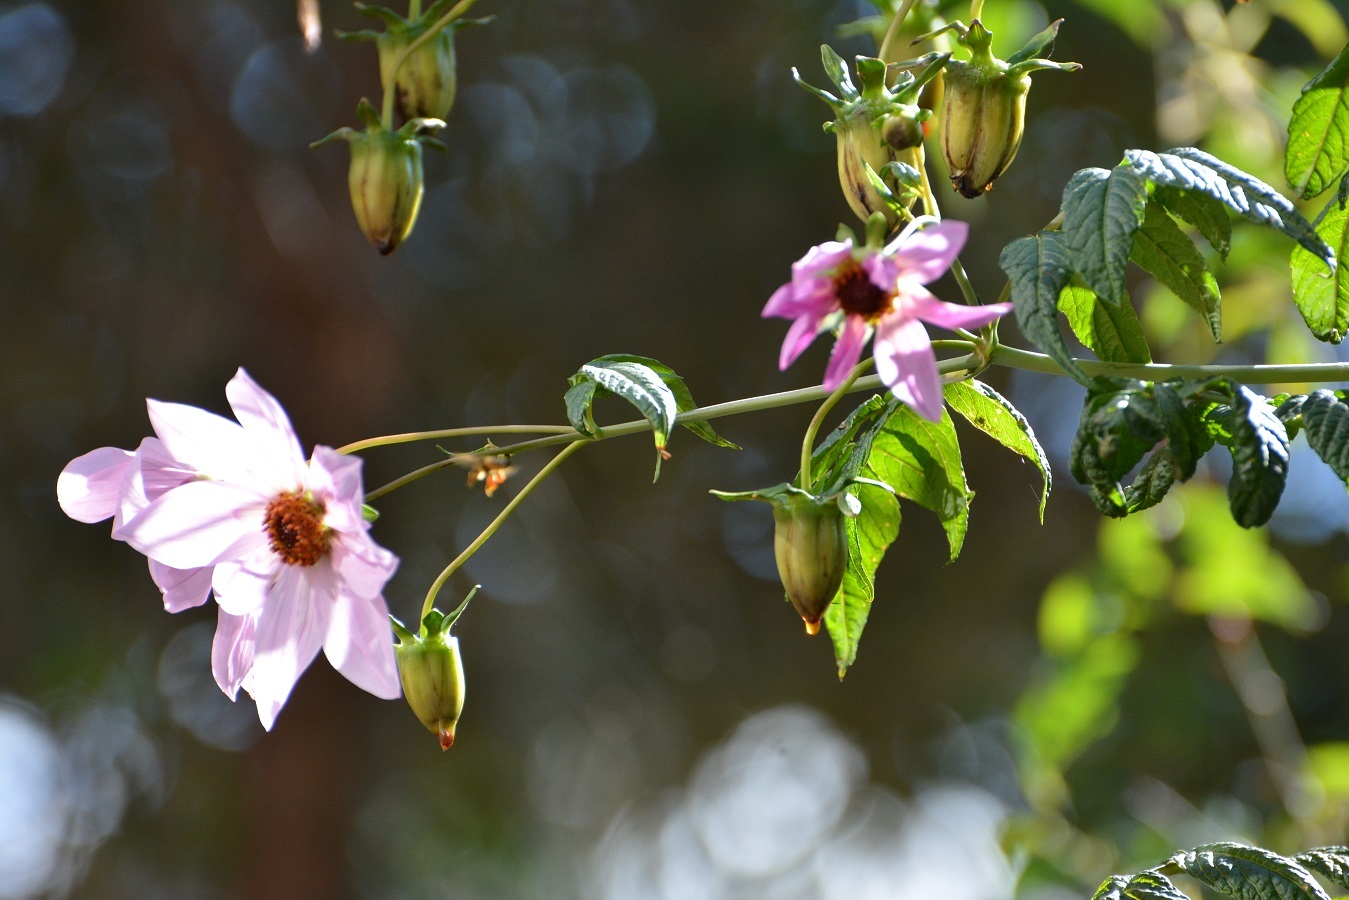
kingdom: Plantae
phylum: Tracheophyta
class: Magnoliopsida
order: Asterales
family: Asteraceae
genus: Dahlia
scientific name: Dahlia imperialis
